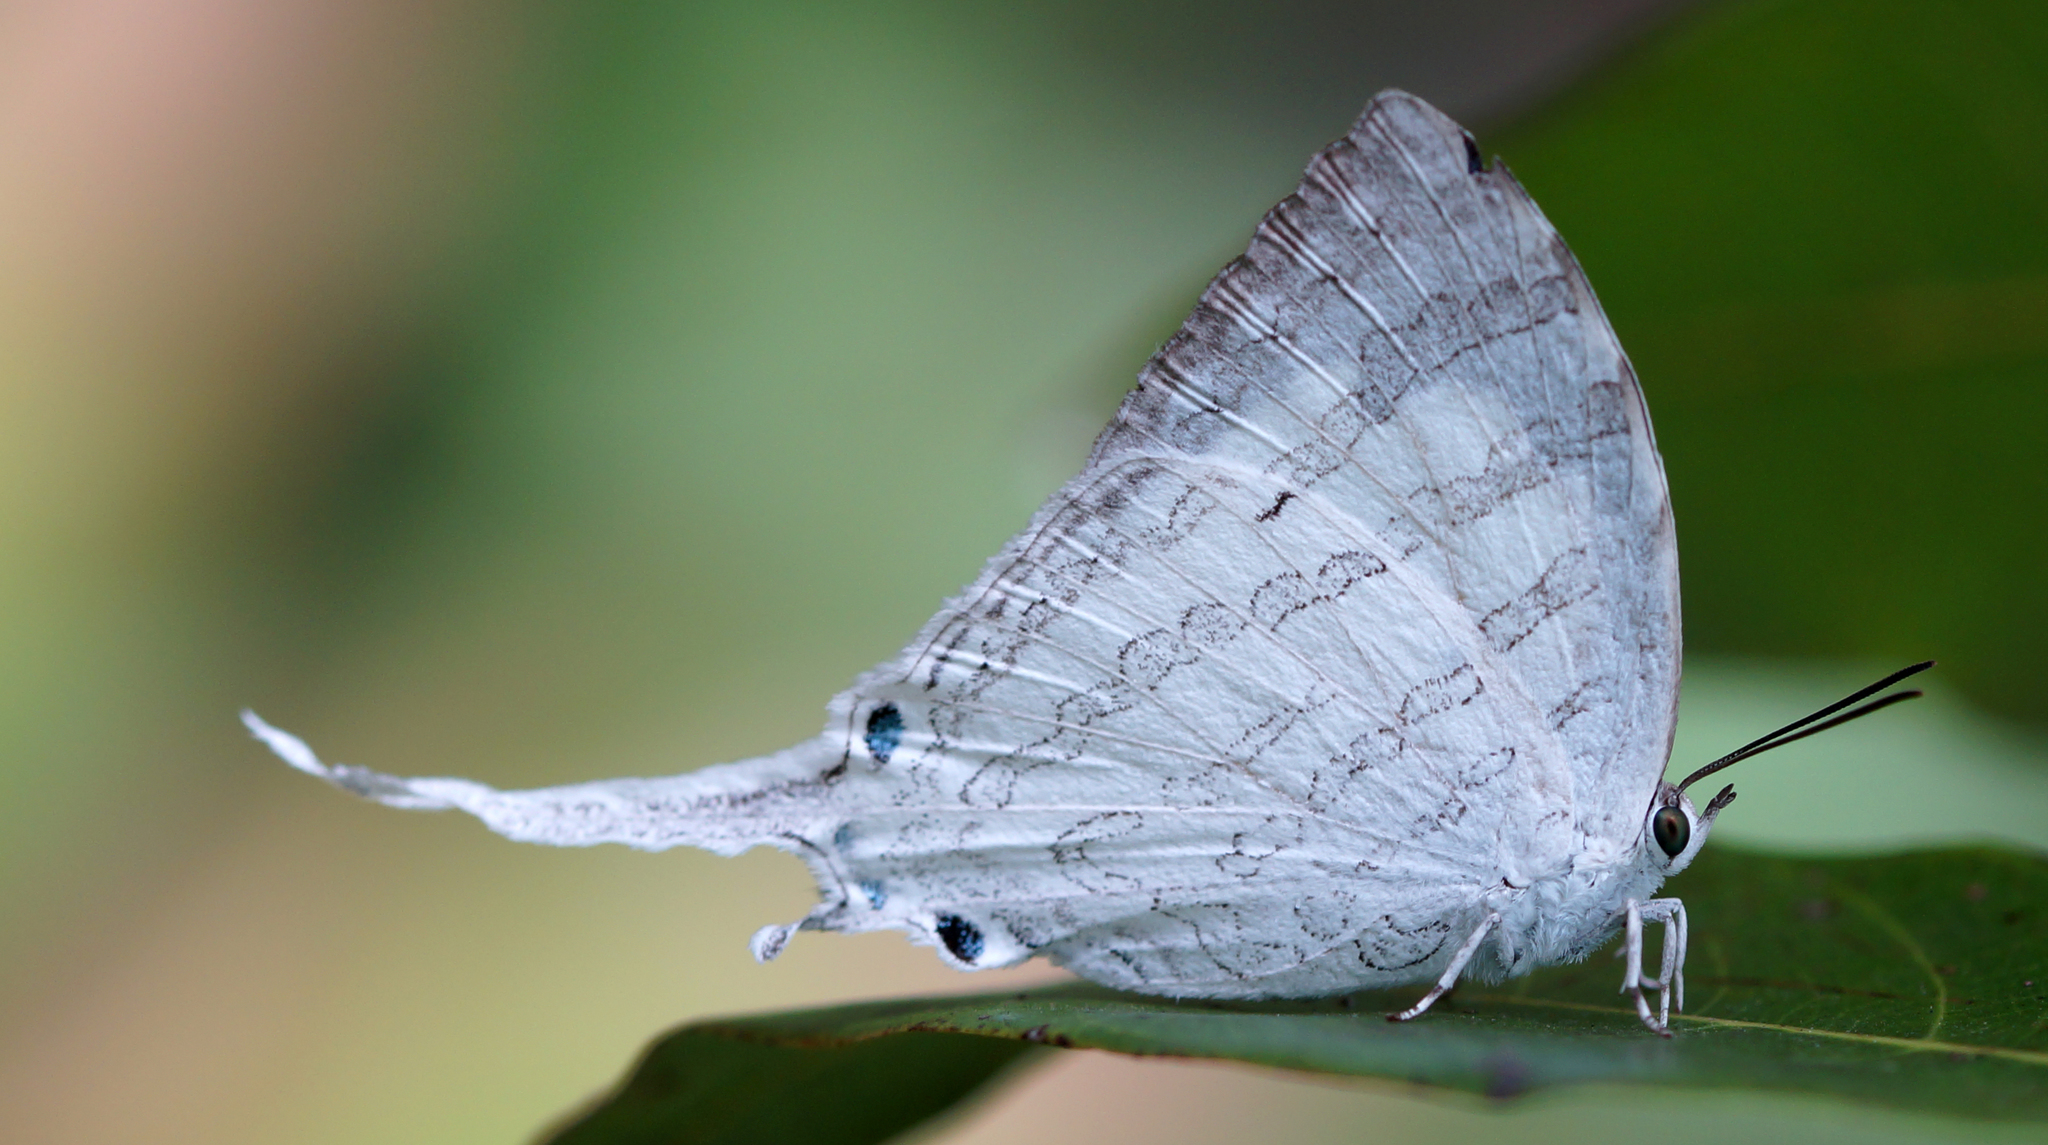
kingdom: Animalia
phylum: Arthropoda
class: Insecta
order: Lepidoptera
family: Lycaenidae
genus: Neomyrina
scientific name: Neomyrina hiemalis
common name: White imperial
